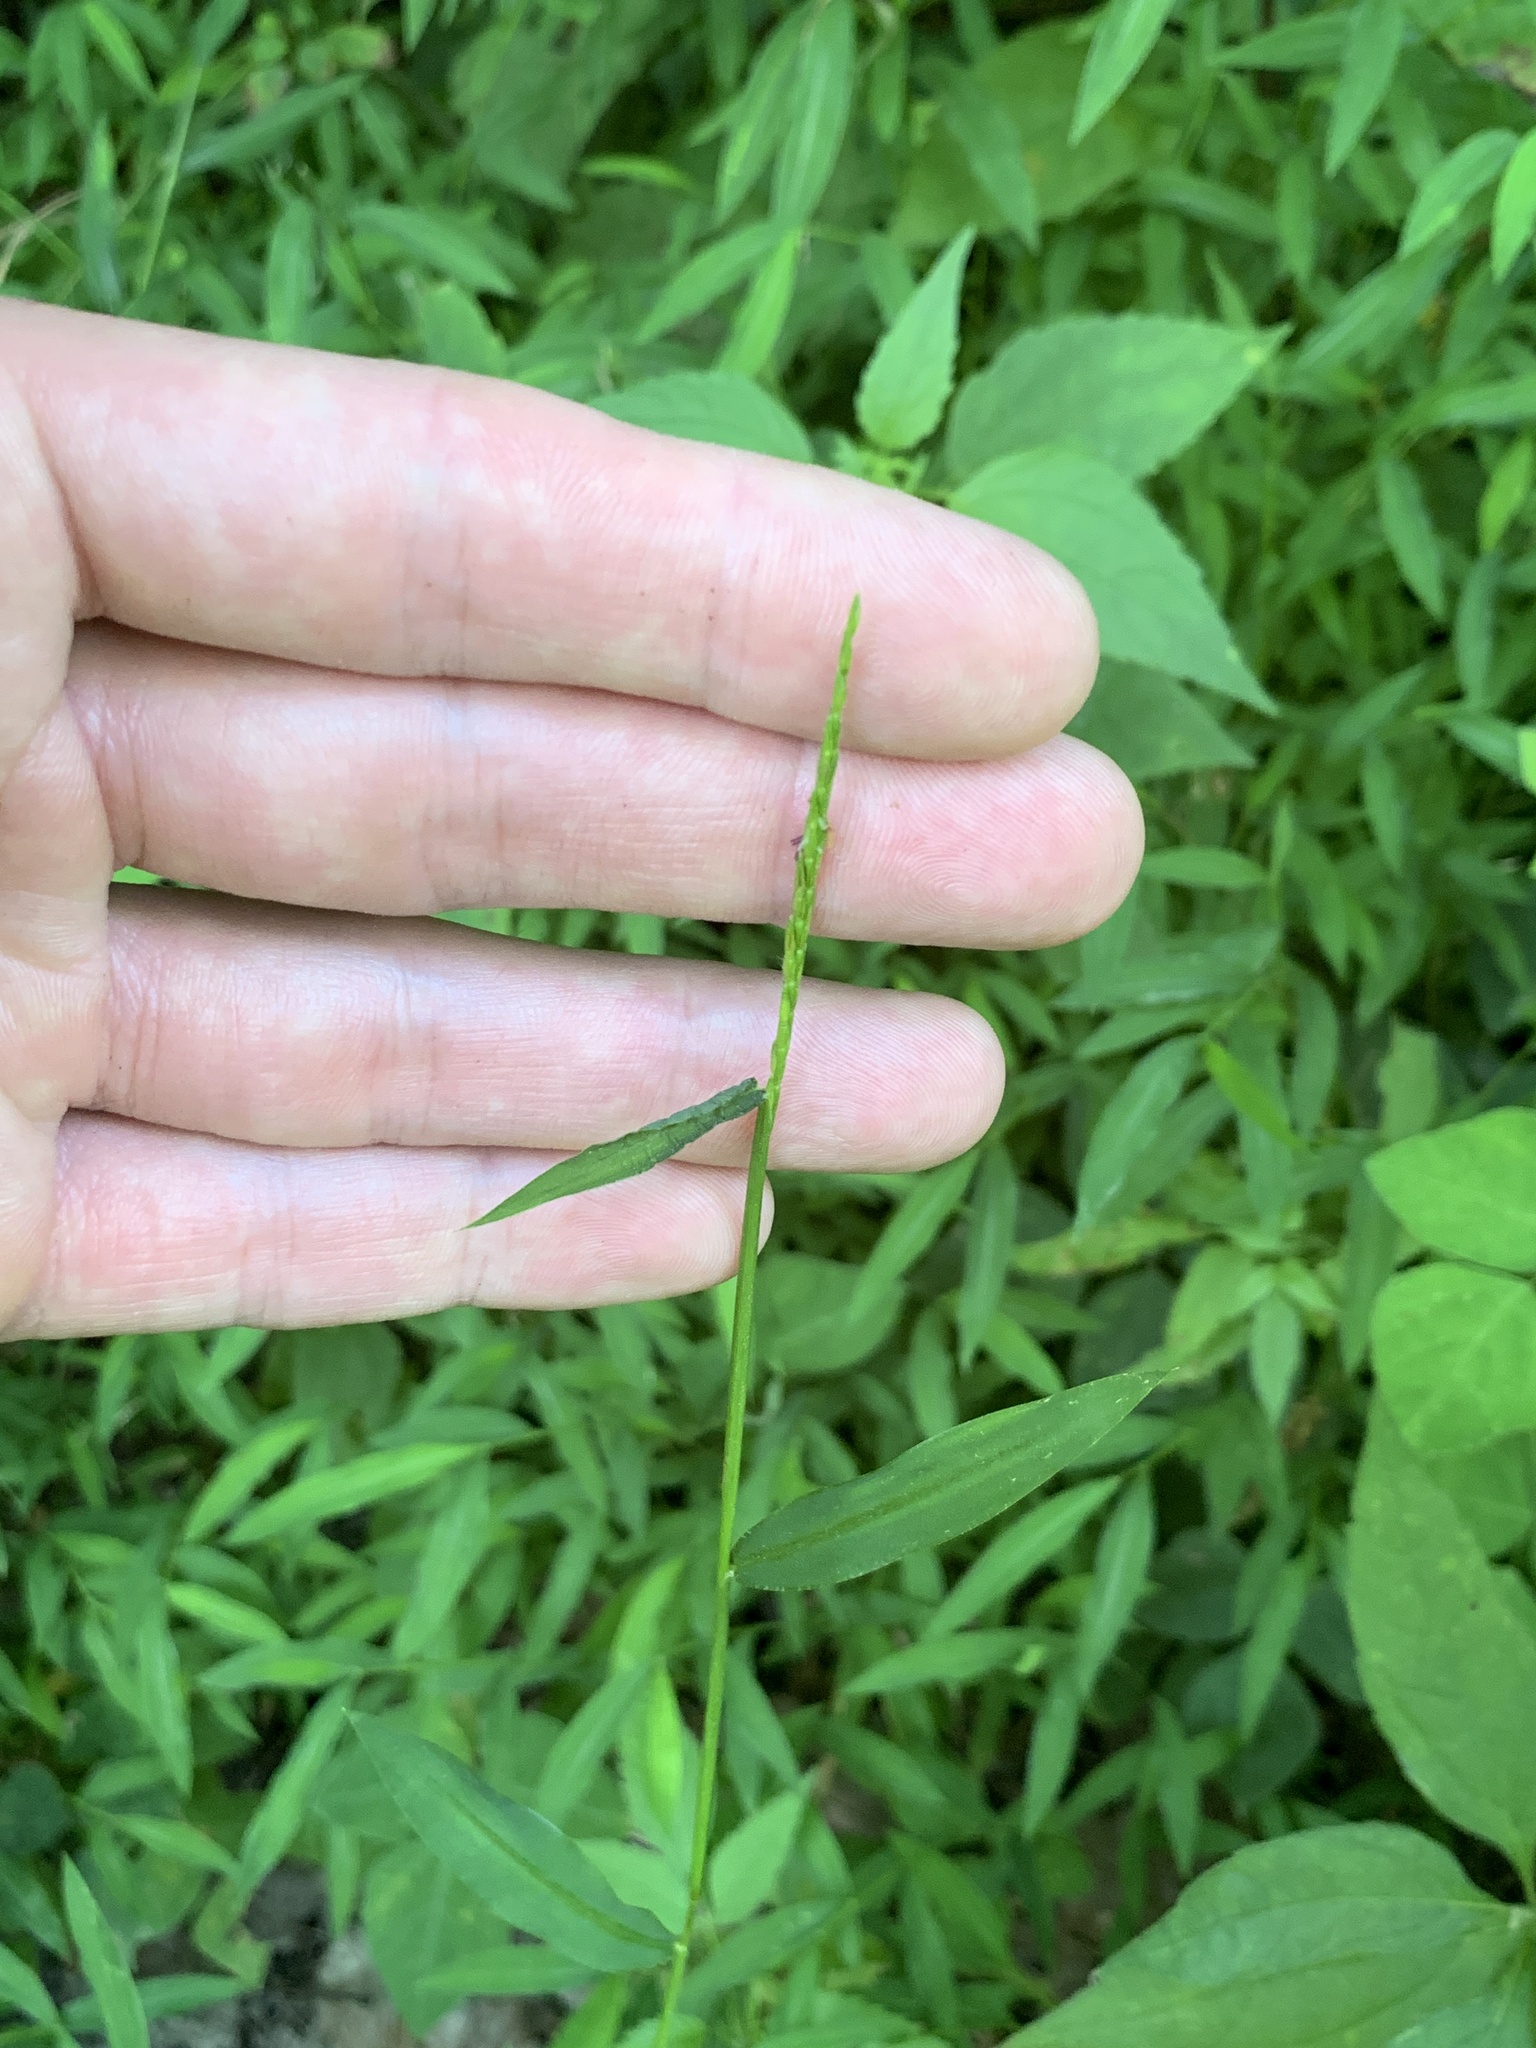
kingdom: Plantae
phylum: Tracheophyta
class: Liliopsida
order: Poales
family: Poaceae
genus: Microstegium
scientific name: Microstegium vimineum
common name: Japanese stiltgrass
